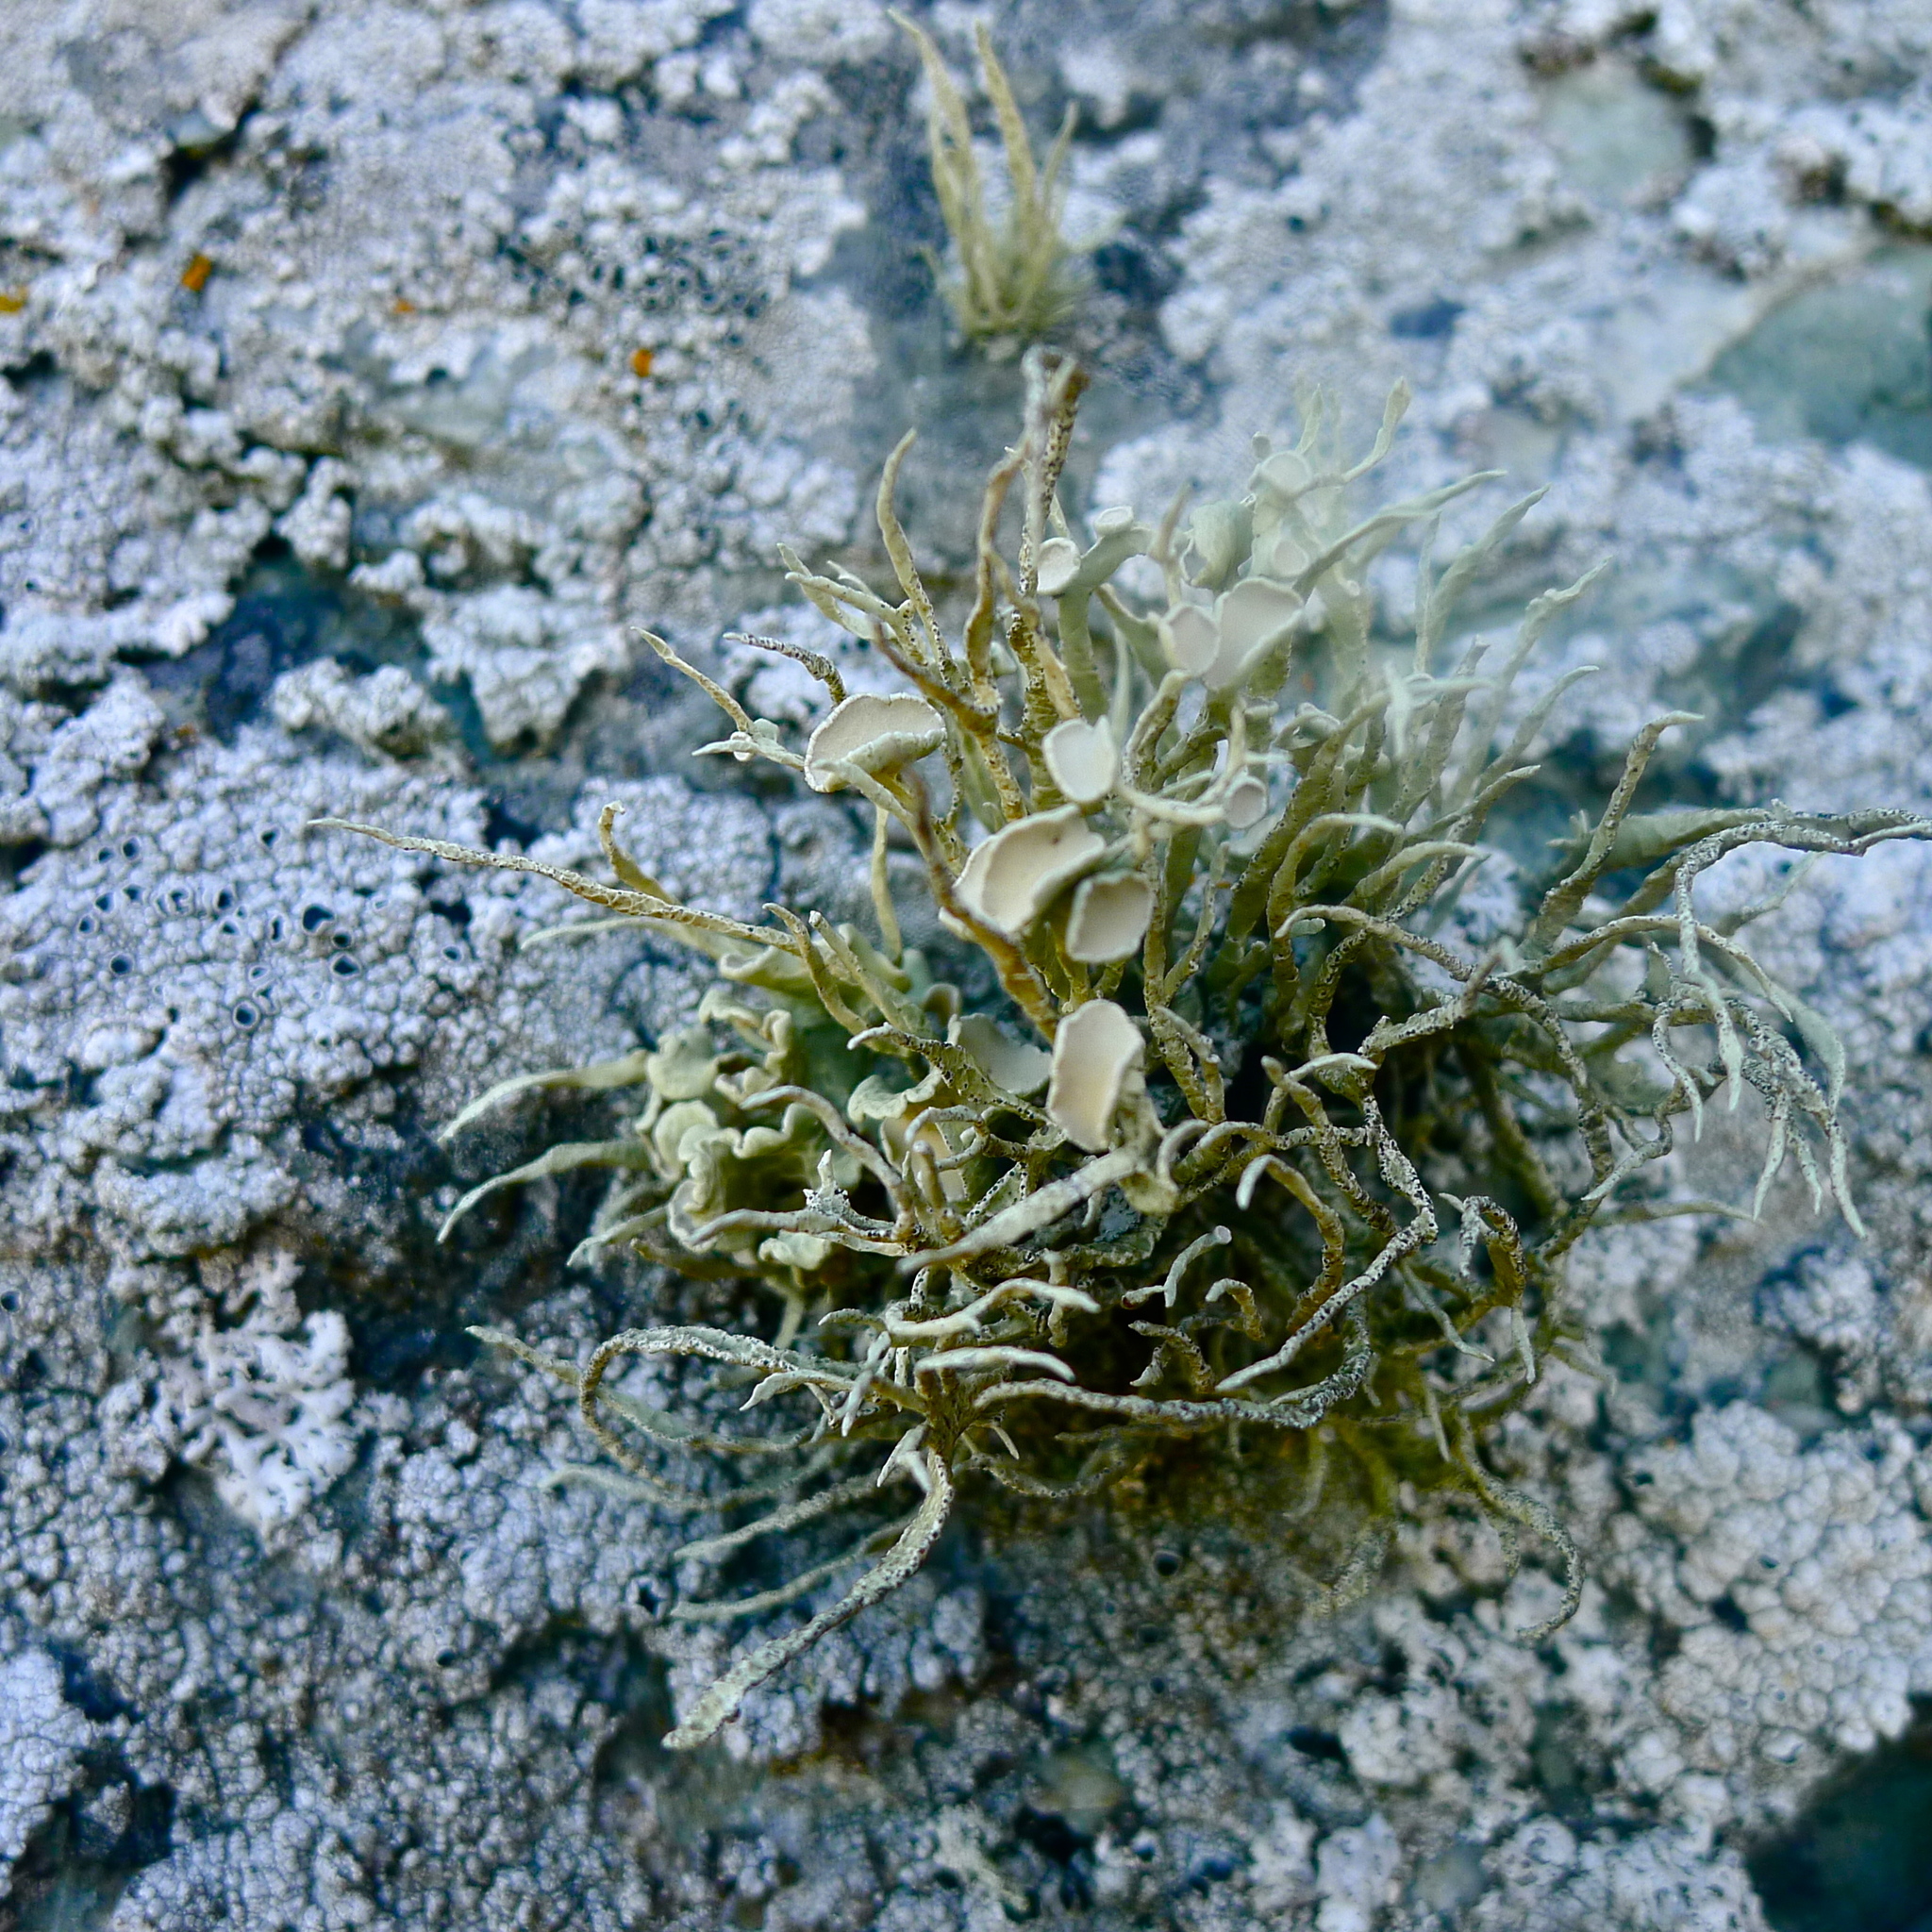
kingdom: Fungi
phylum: Ascomycota
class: Lecanoromycetes
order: Lecanorales
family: Ramalinaceae
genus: Niebla
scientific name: Niebla homalea
